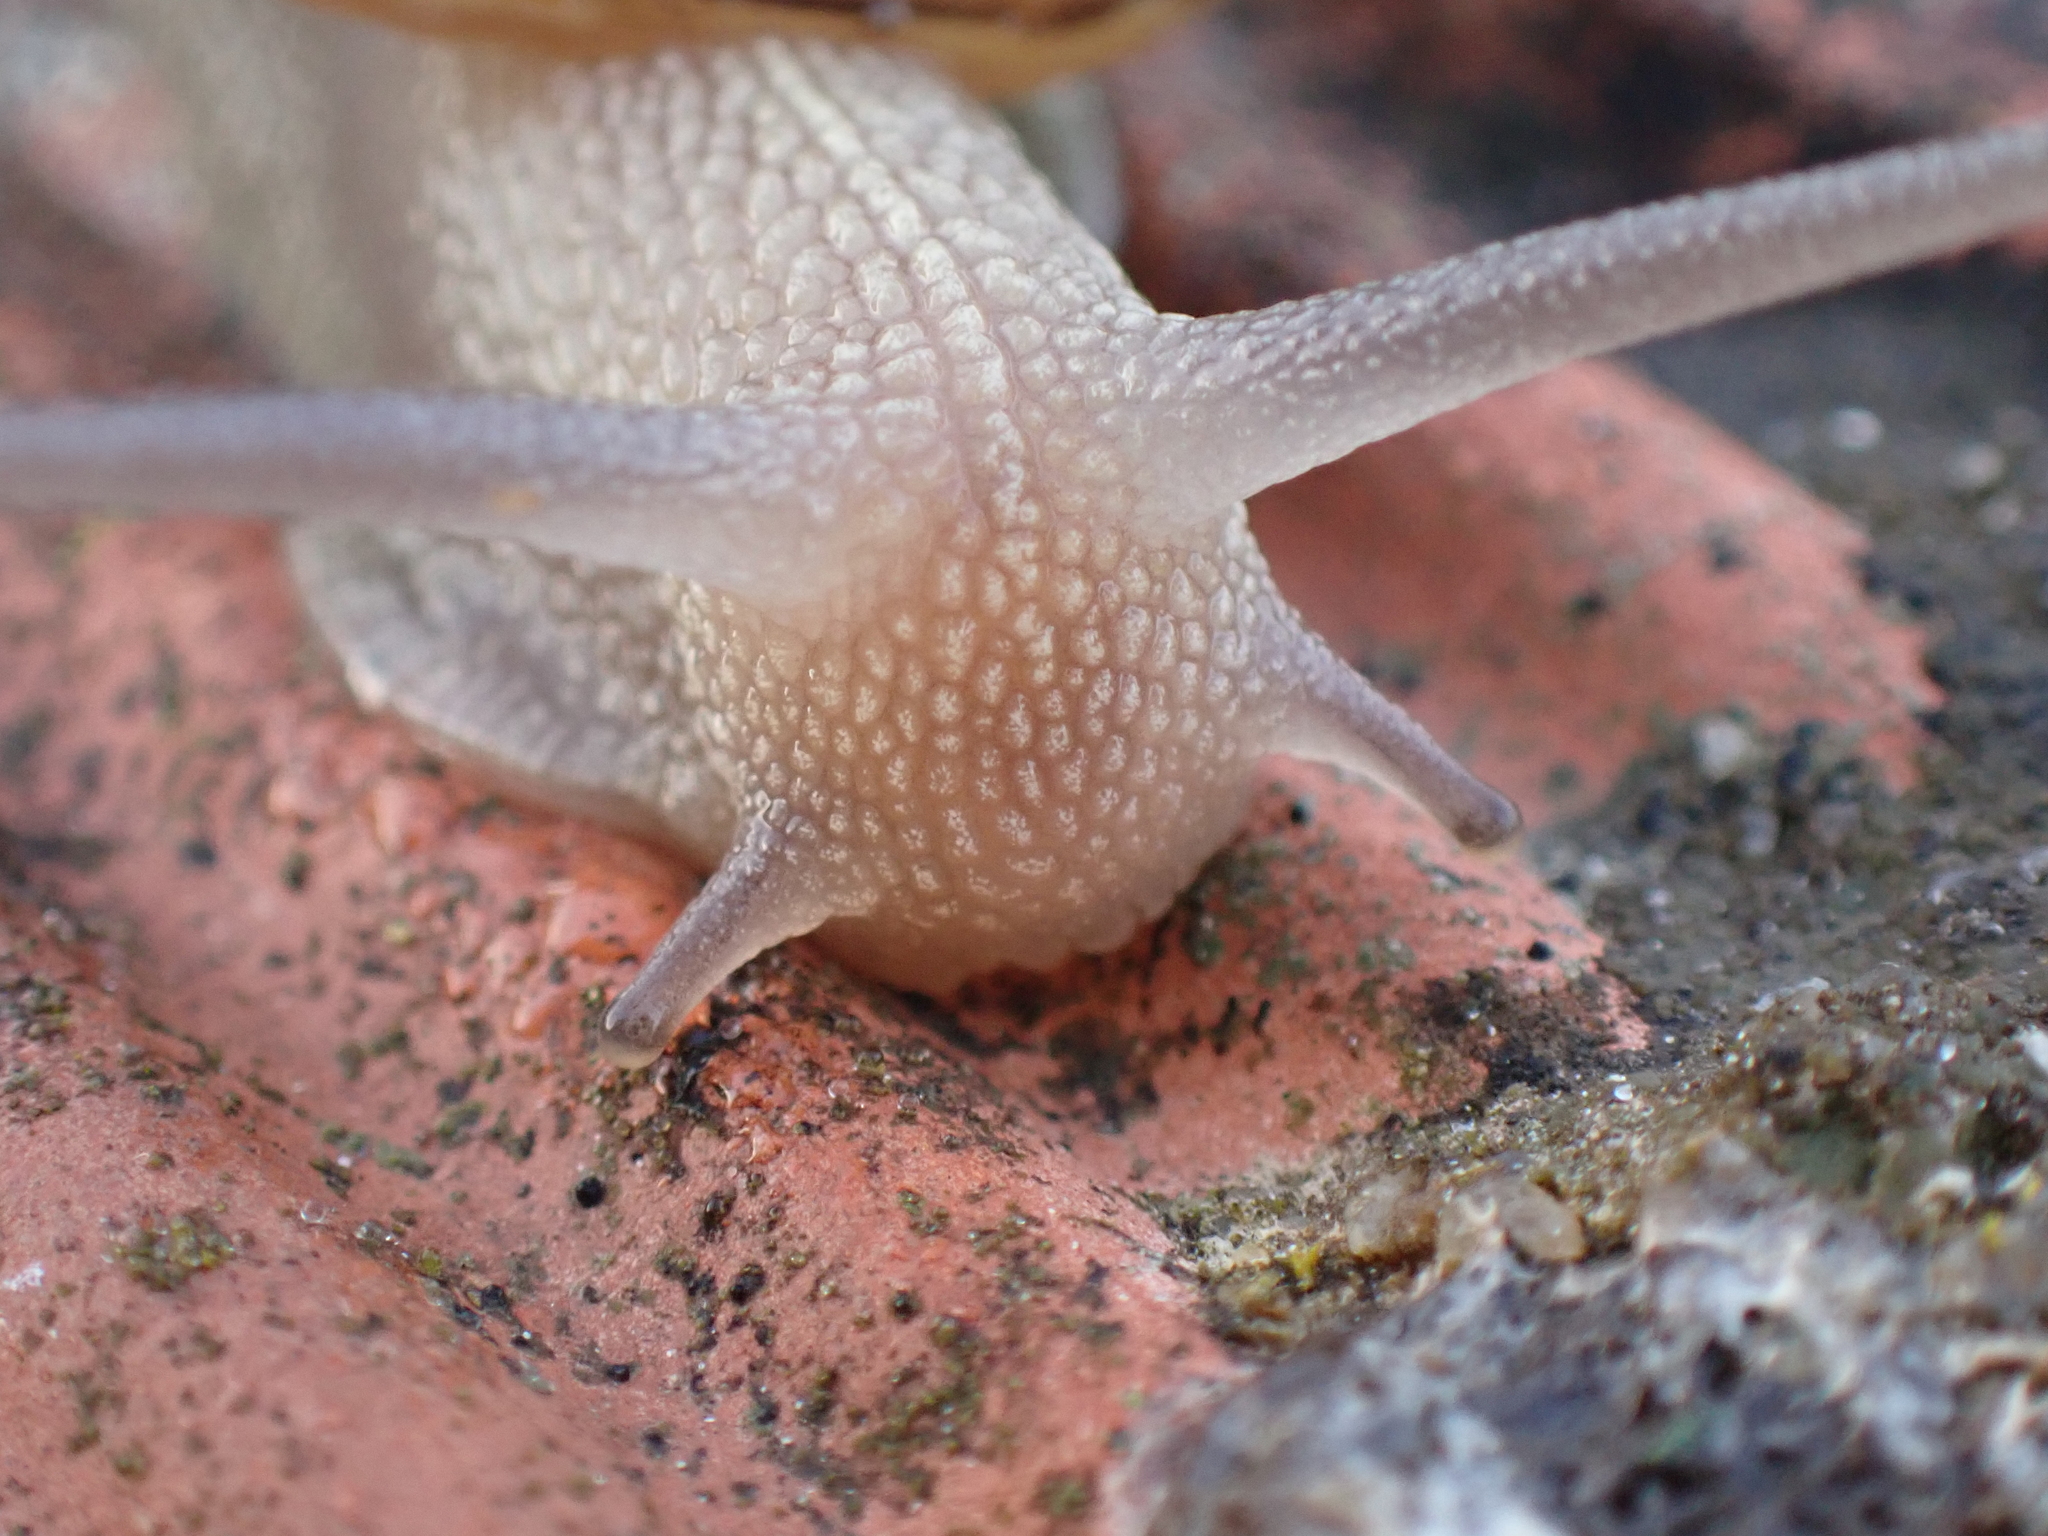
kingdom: Animalia
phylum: Mollusca
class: Gastropoda
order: Stylommatophora
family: Helicidae
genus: Cornu
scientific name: Cornu aspersum
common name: Brown garden snail
